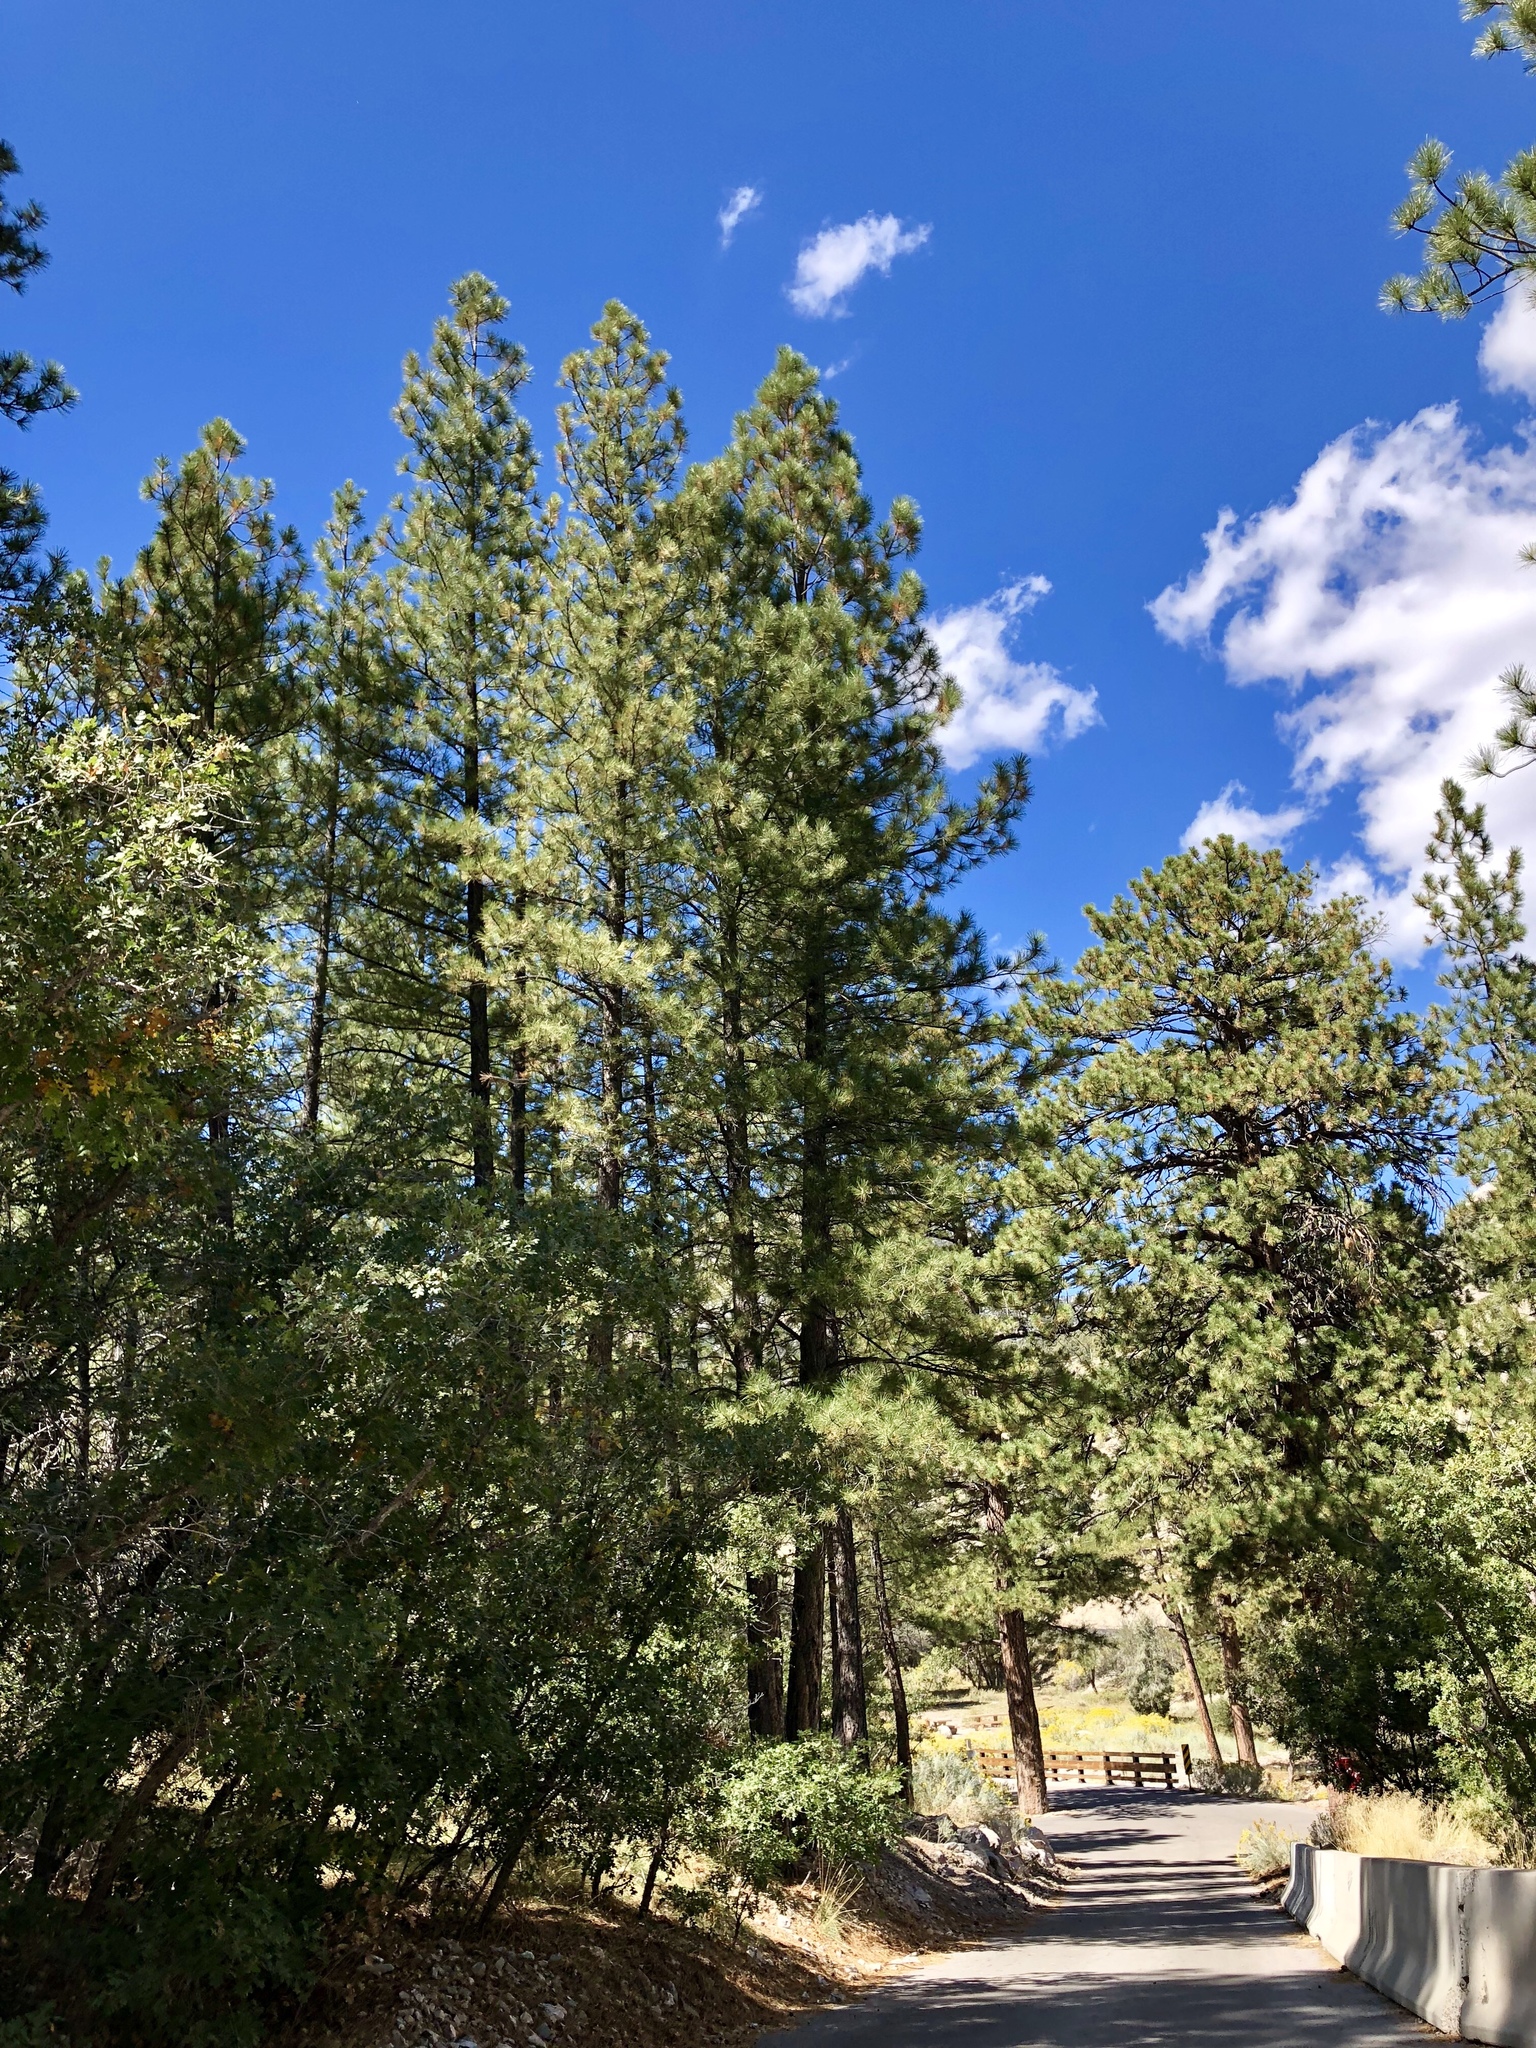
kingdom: Plantae
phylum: Tracheophyta
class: Pinopsida
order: Pinales
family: Pinaceae
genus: Pinus
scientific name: Pinus ponderosa
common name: Western yellow-pine
